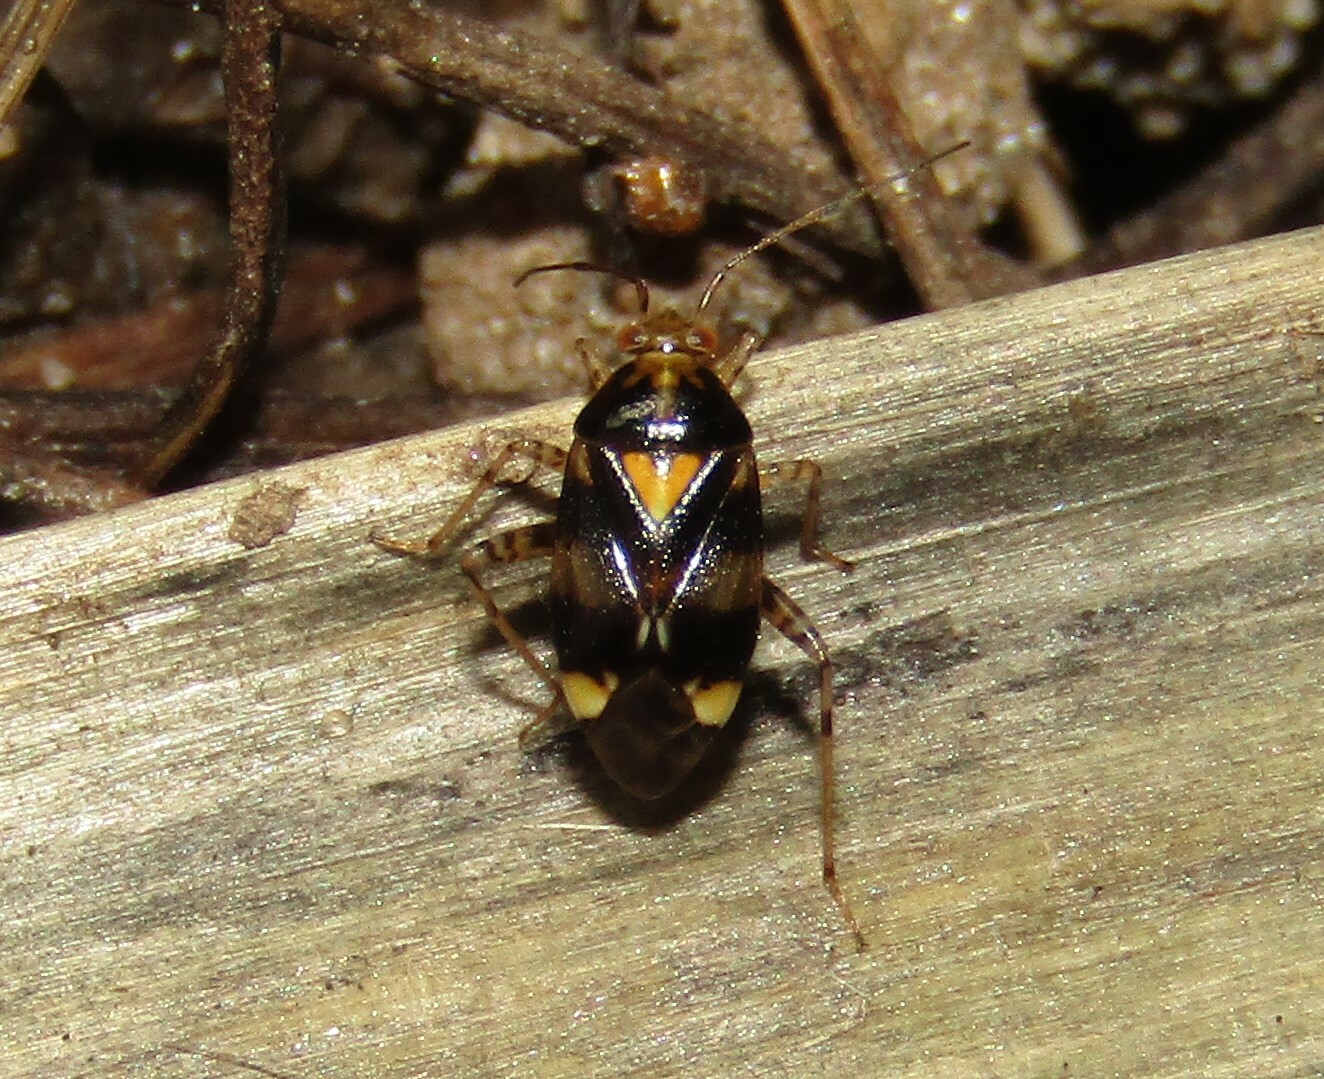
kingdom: Animalia
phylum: Arthropoda
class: Insecta
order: Hemiptera
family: Miridae
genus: Liocoris
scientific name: Liocoris tripustulatus
